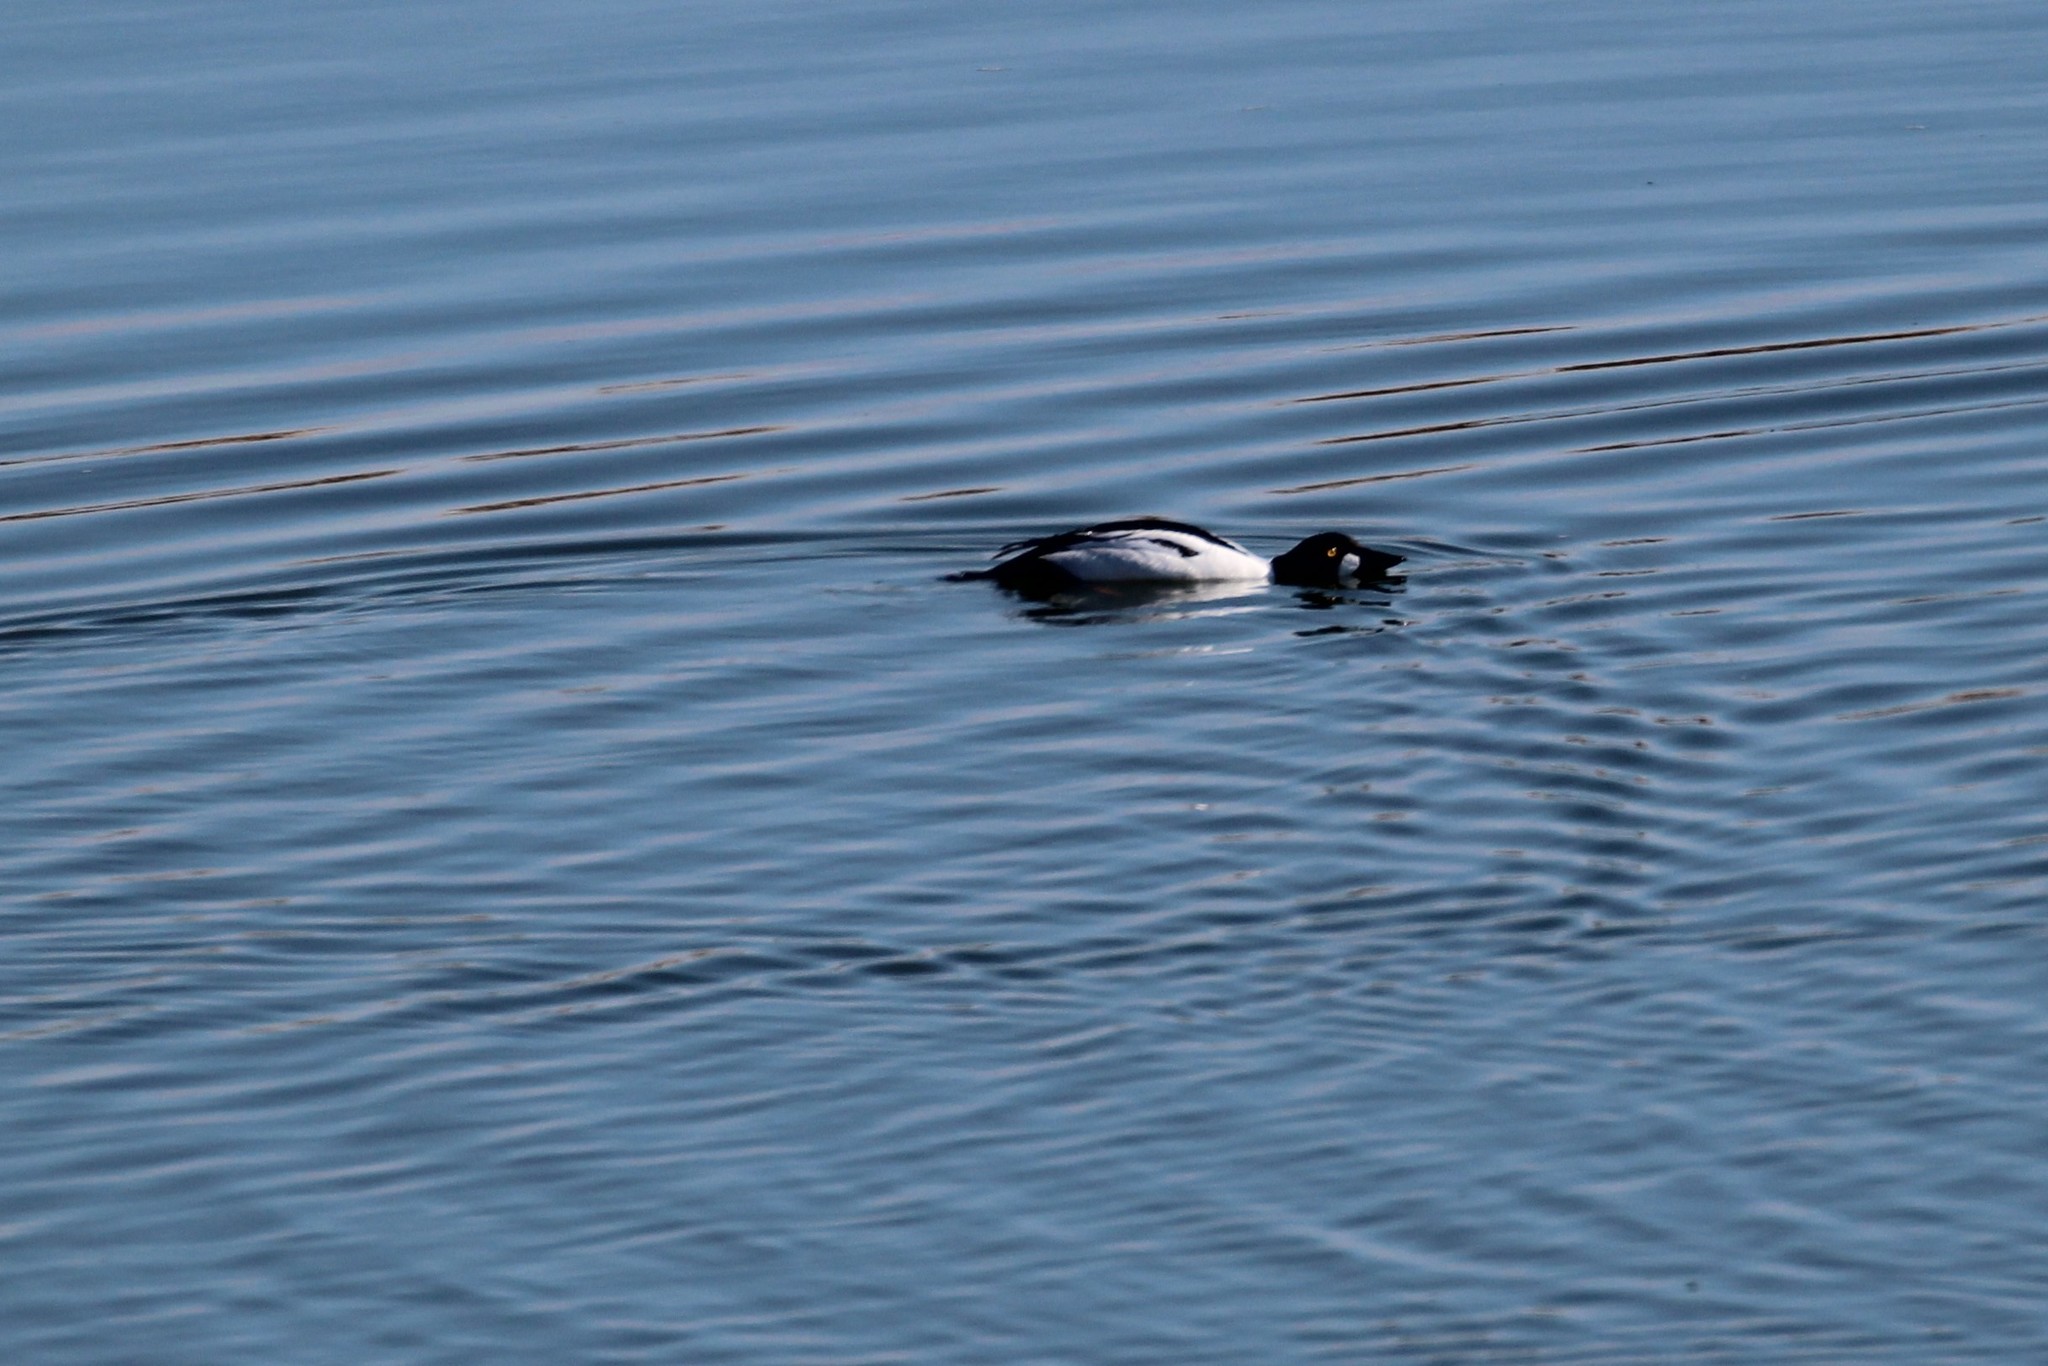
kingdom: Animalia
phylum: Chordata
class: Aves
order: Anseriformes
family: Anatidae
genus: Bucephala
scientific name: Bucephala clangula
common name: Common goldeneye
